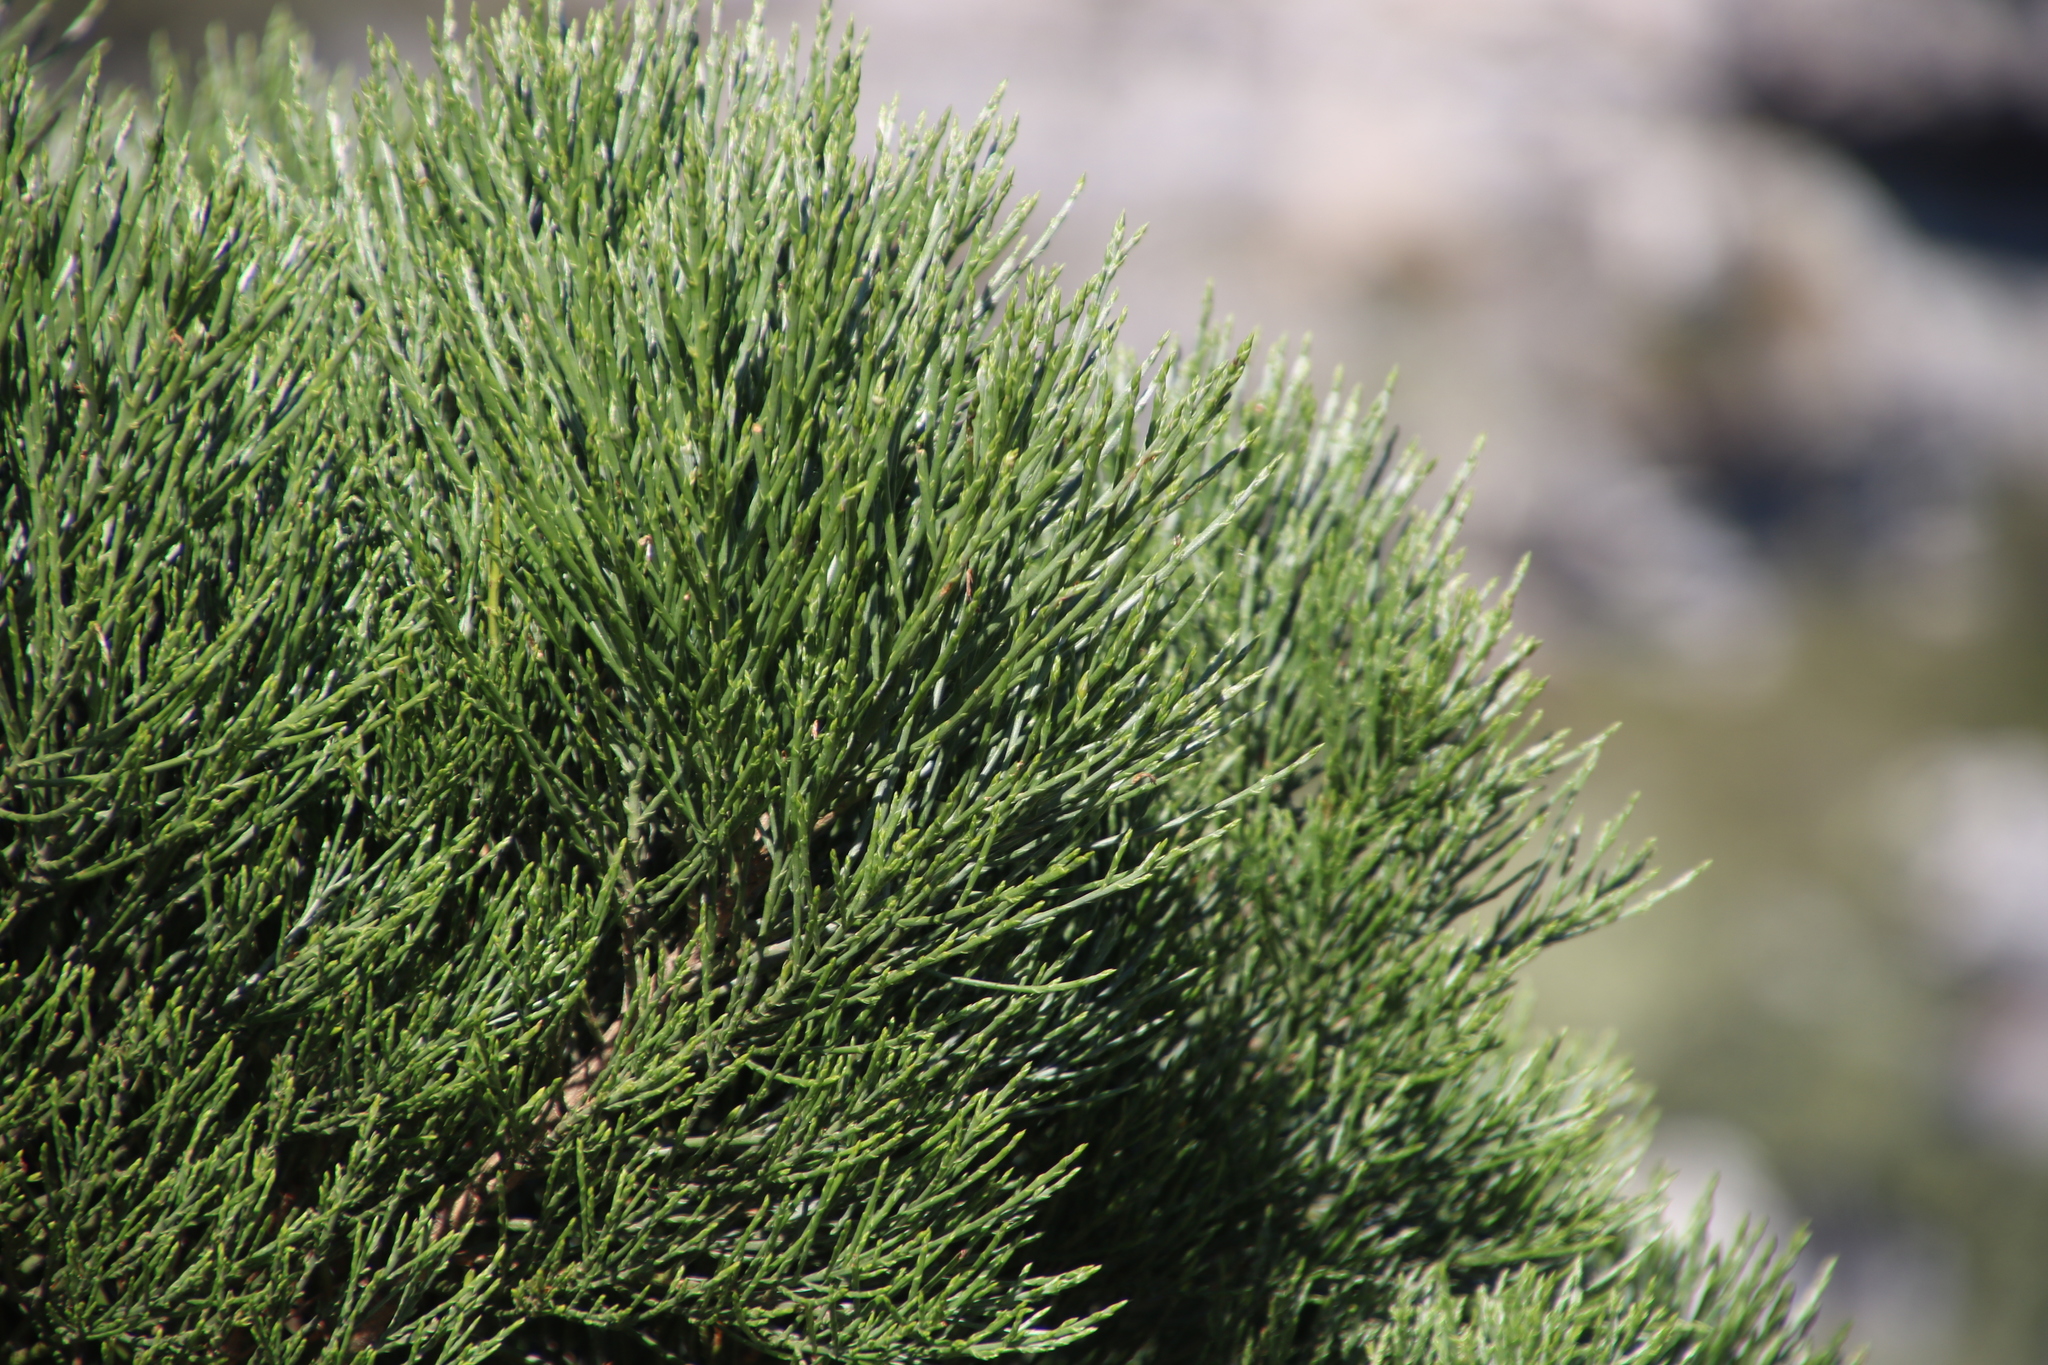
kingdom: Plantae
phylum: Tracheophyta
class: Magnoliopsida
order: Fabales
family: Fabaceae
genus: Psoralea
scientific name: Psoralea congesta
